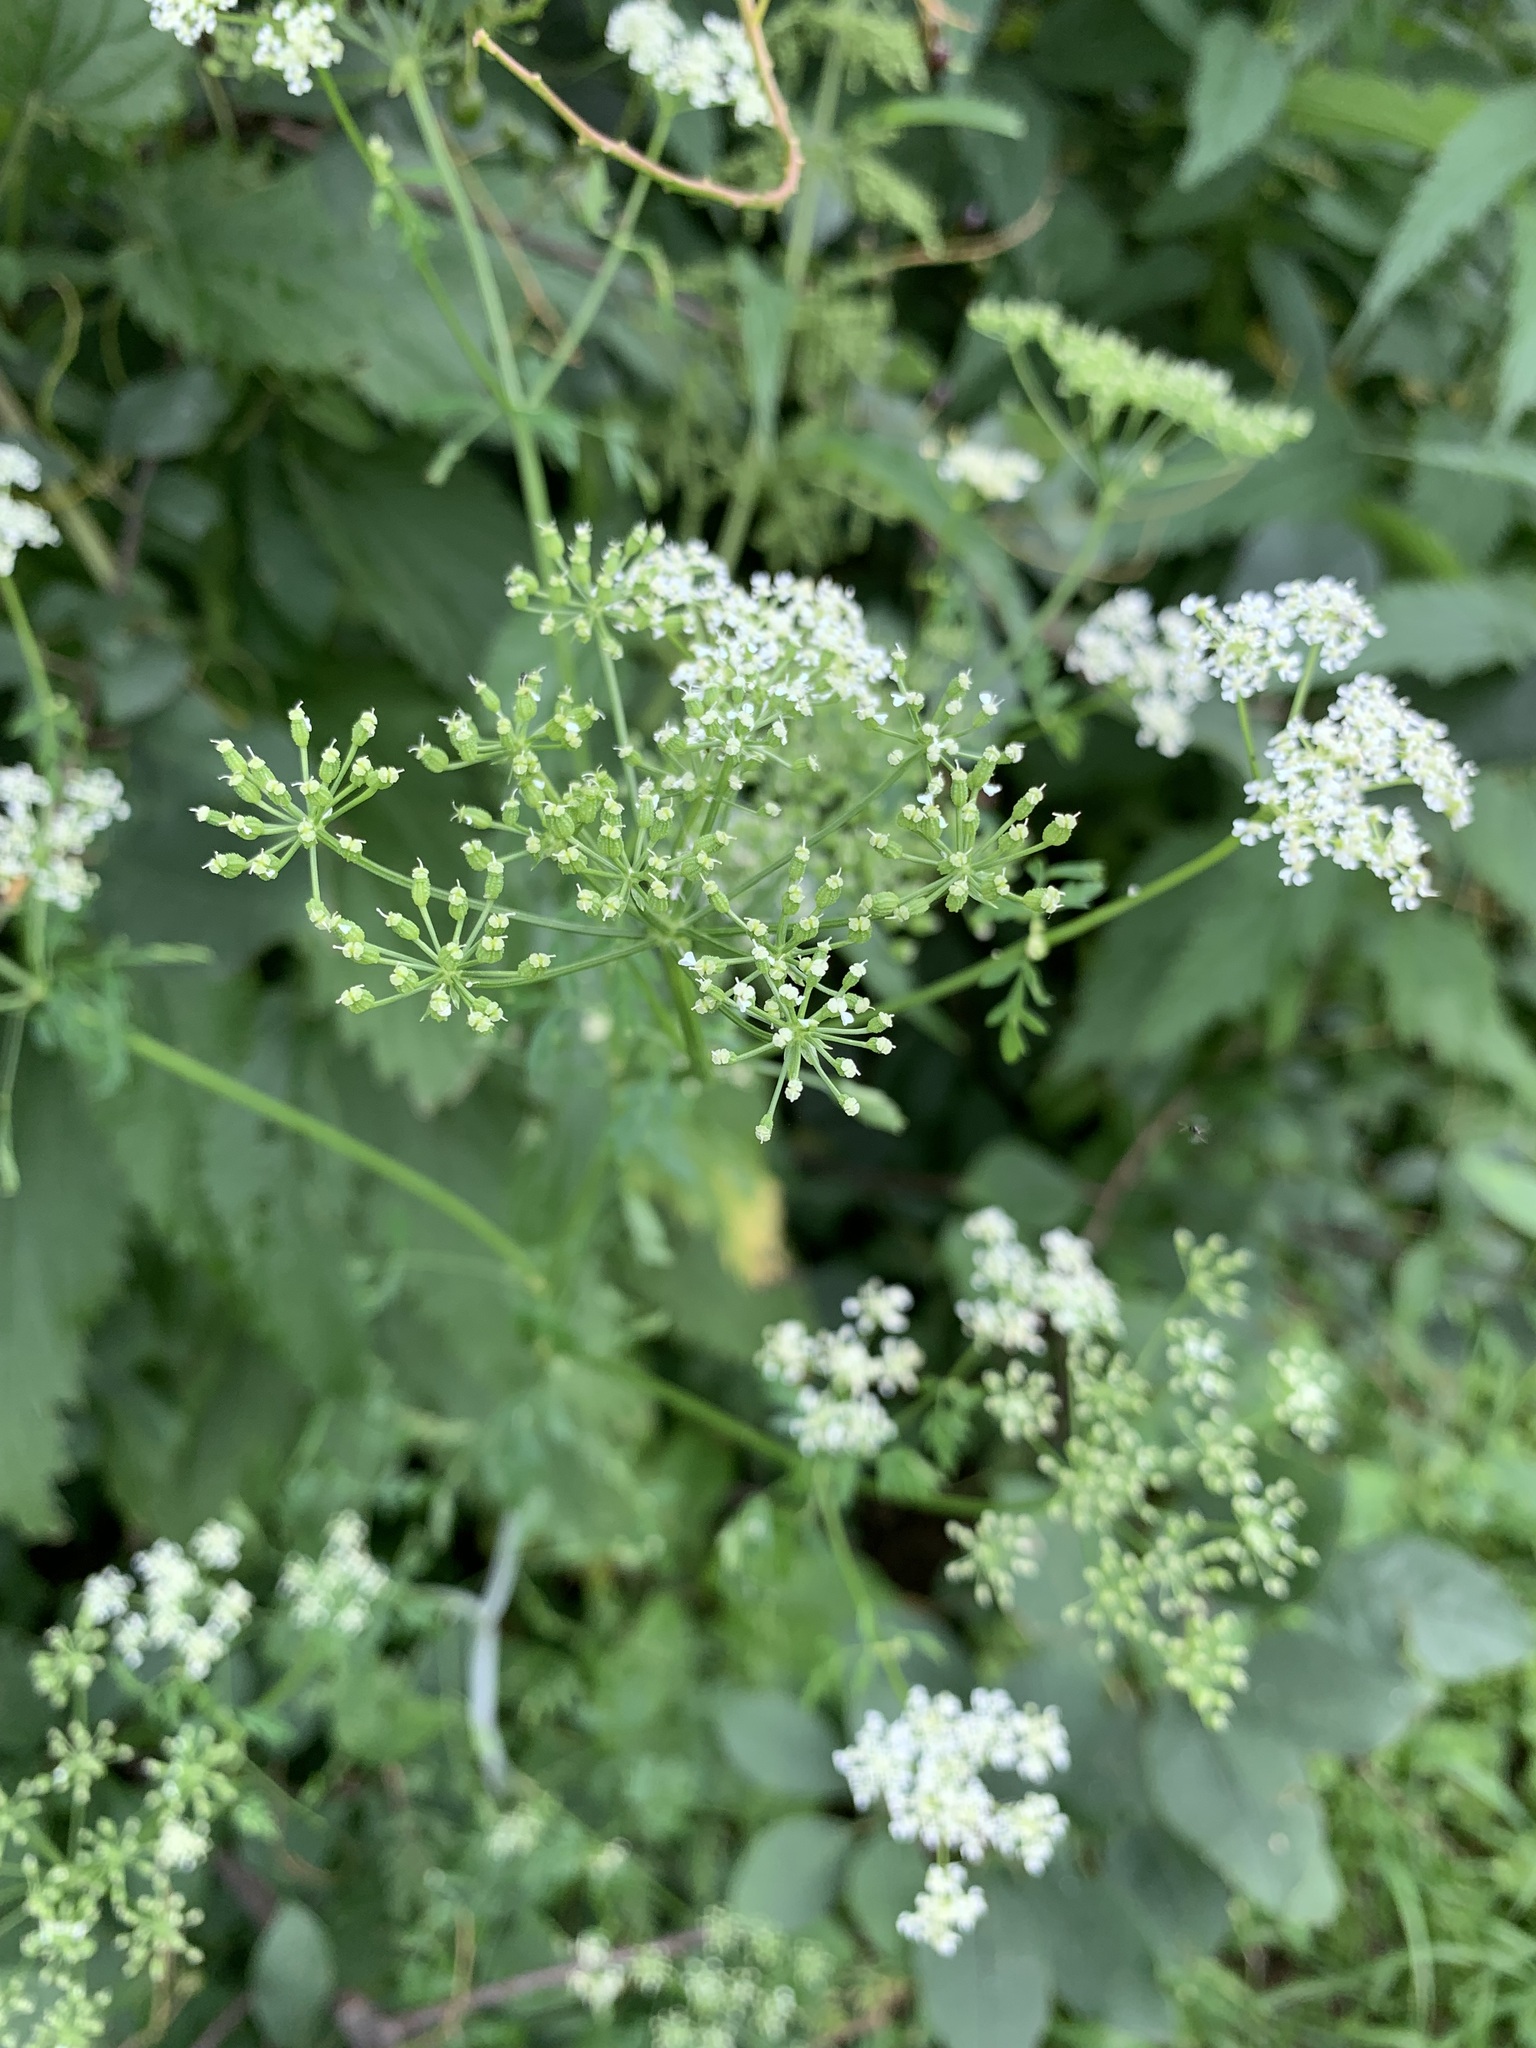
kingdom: Plantae
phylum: Tracheophyta
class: Magnoliopsida
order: Apiales
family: Apiaceae
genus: Conium
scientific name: Conium maculatum
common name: Hemlock
